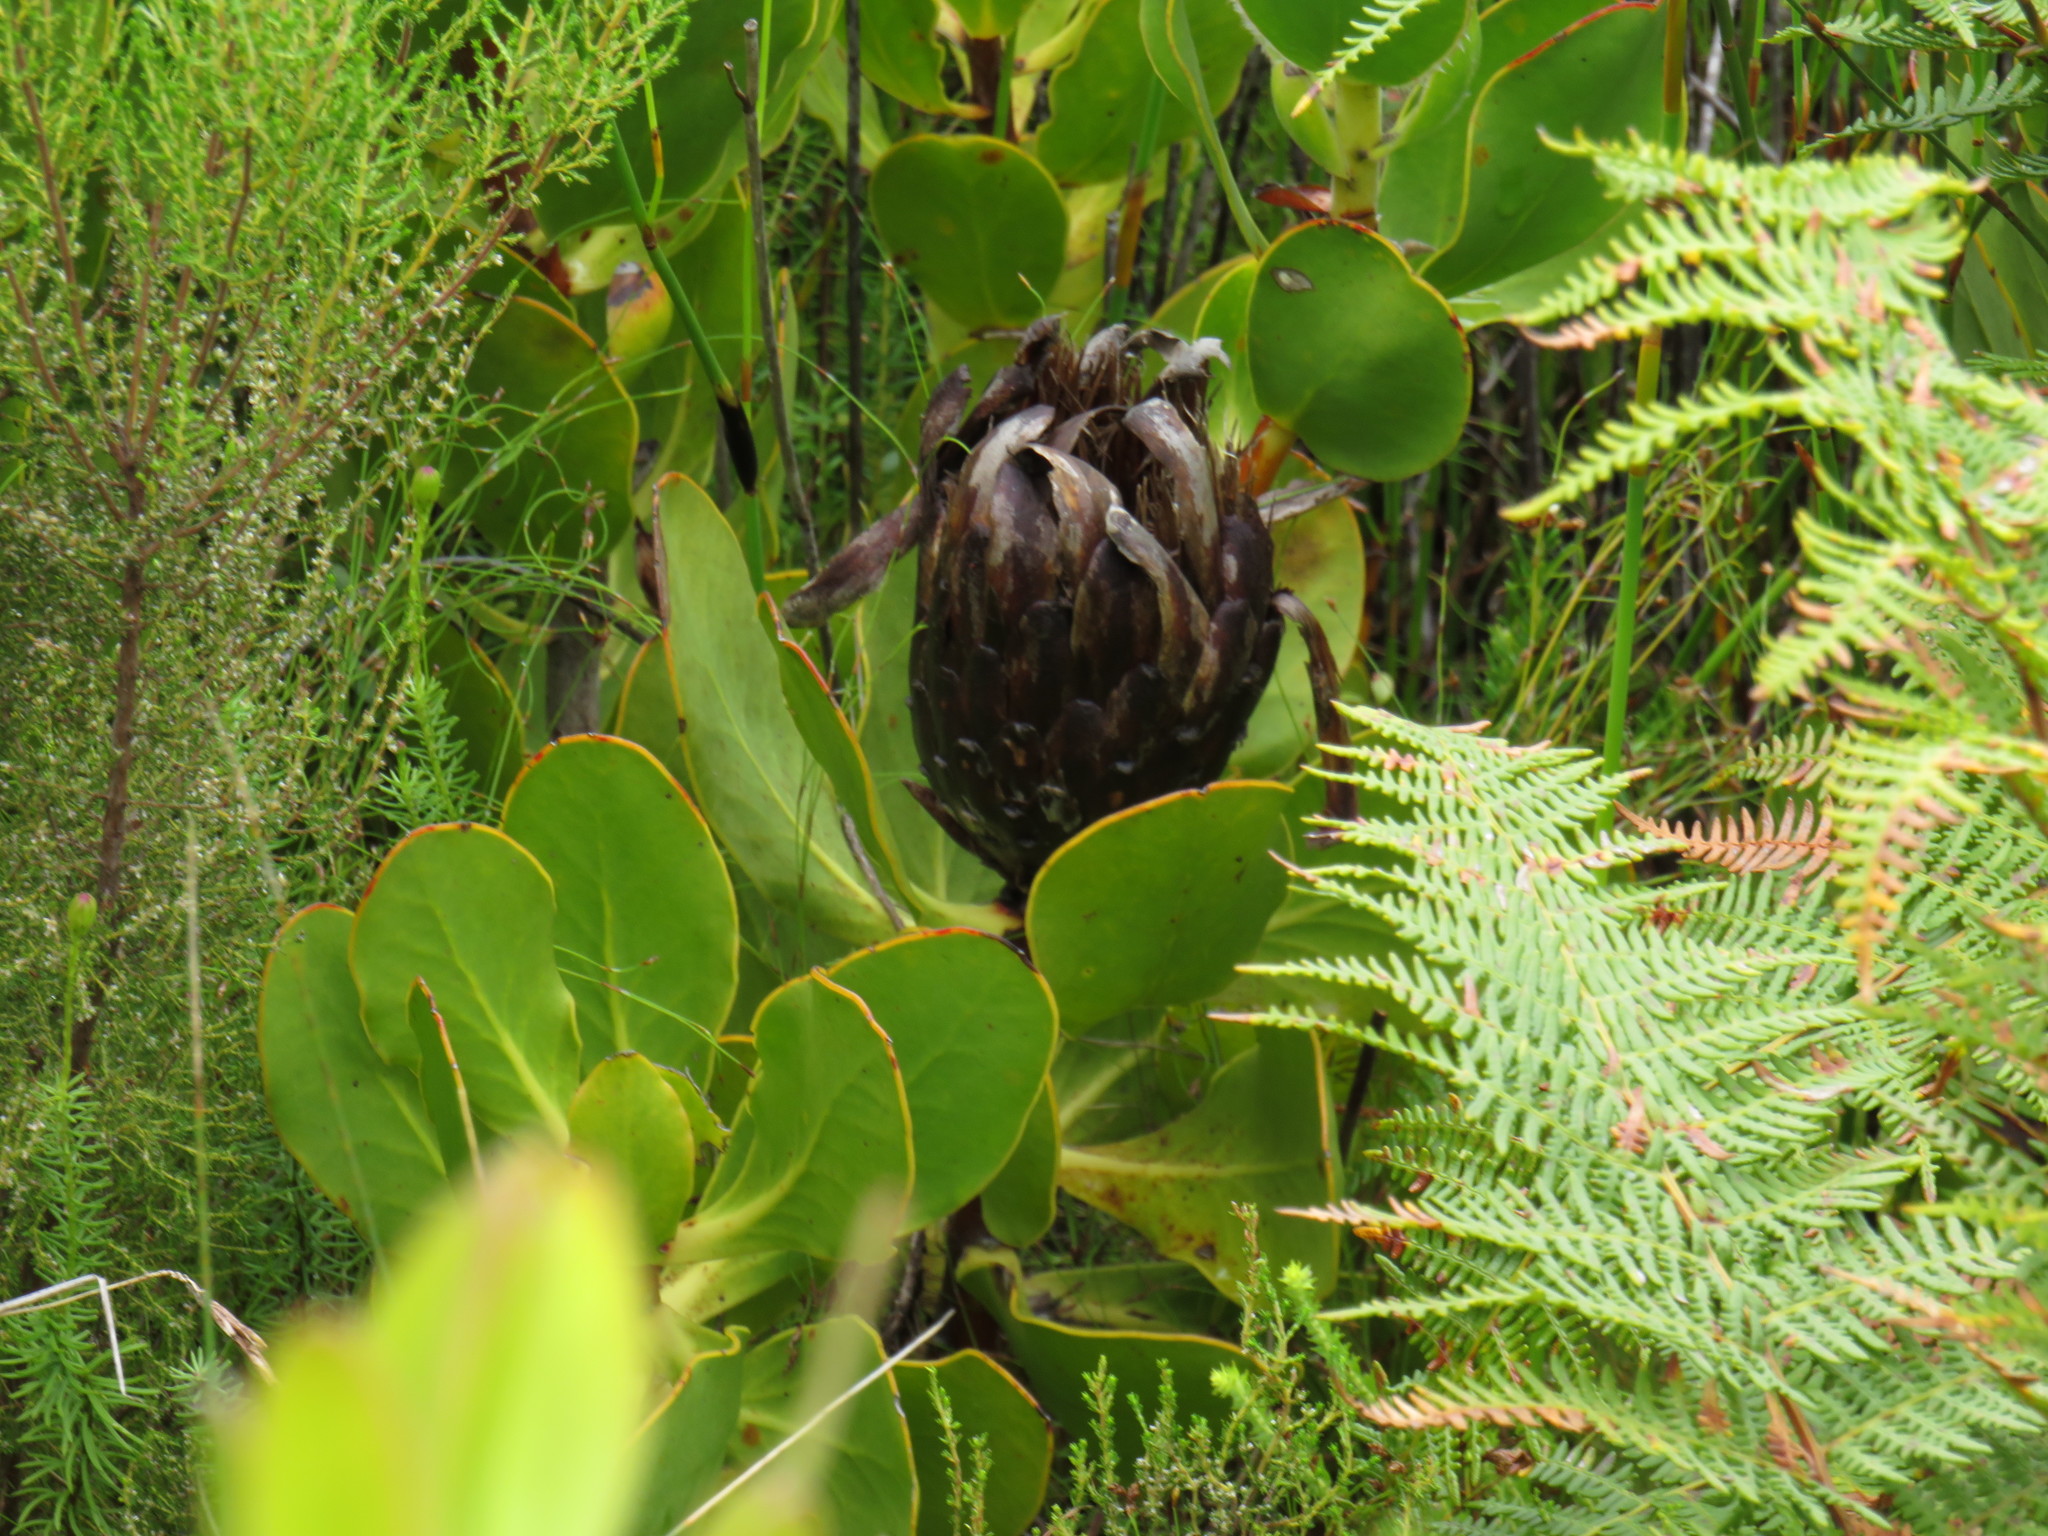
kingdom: Plantae
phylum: Tracheophyta
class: Magnoliopsida
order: Proteales
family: Proteaceae
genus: Protea
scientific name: Protea speciosa
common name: Brown-beard sugarbush
